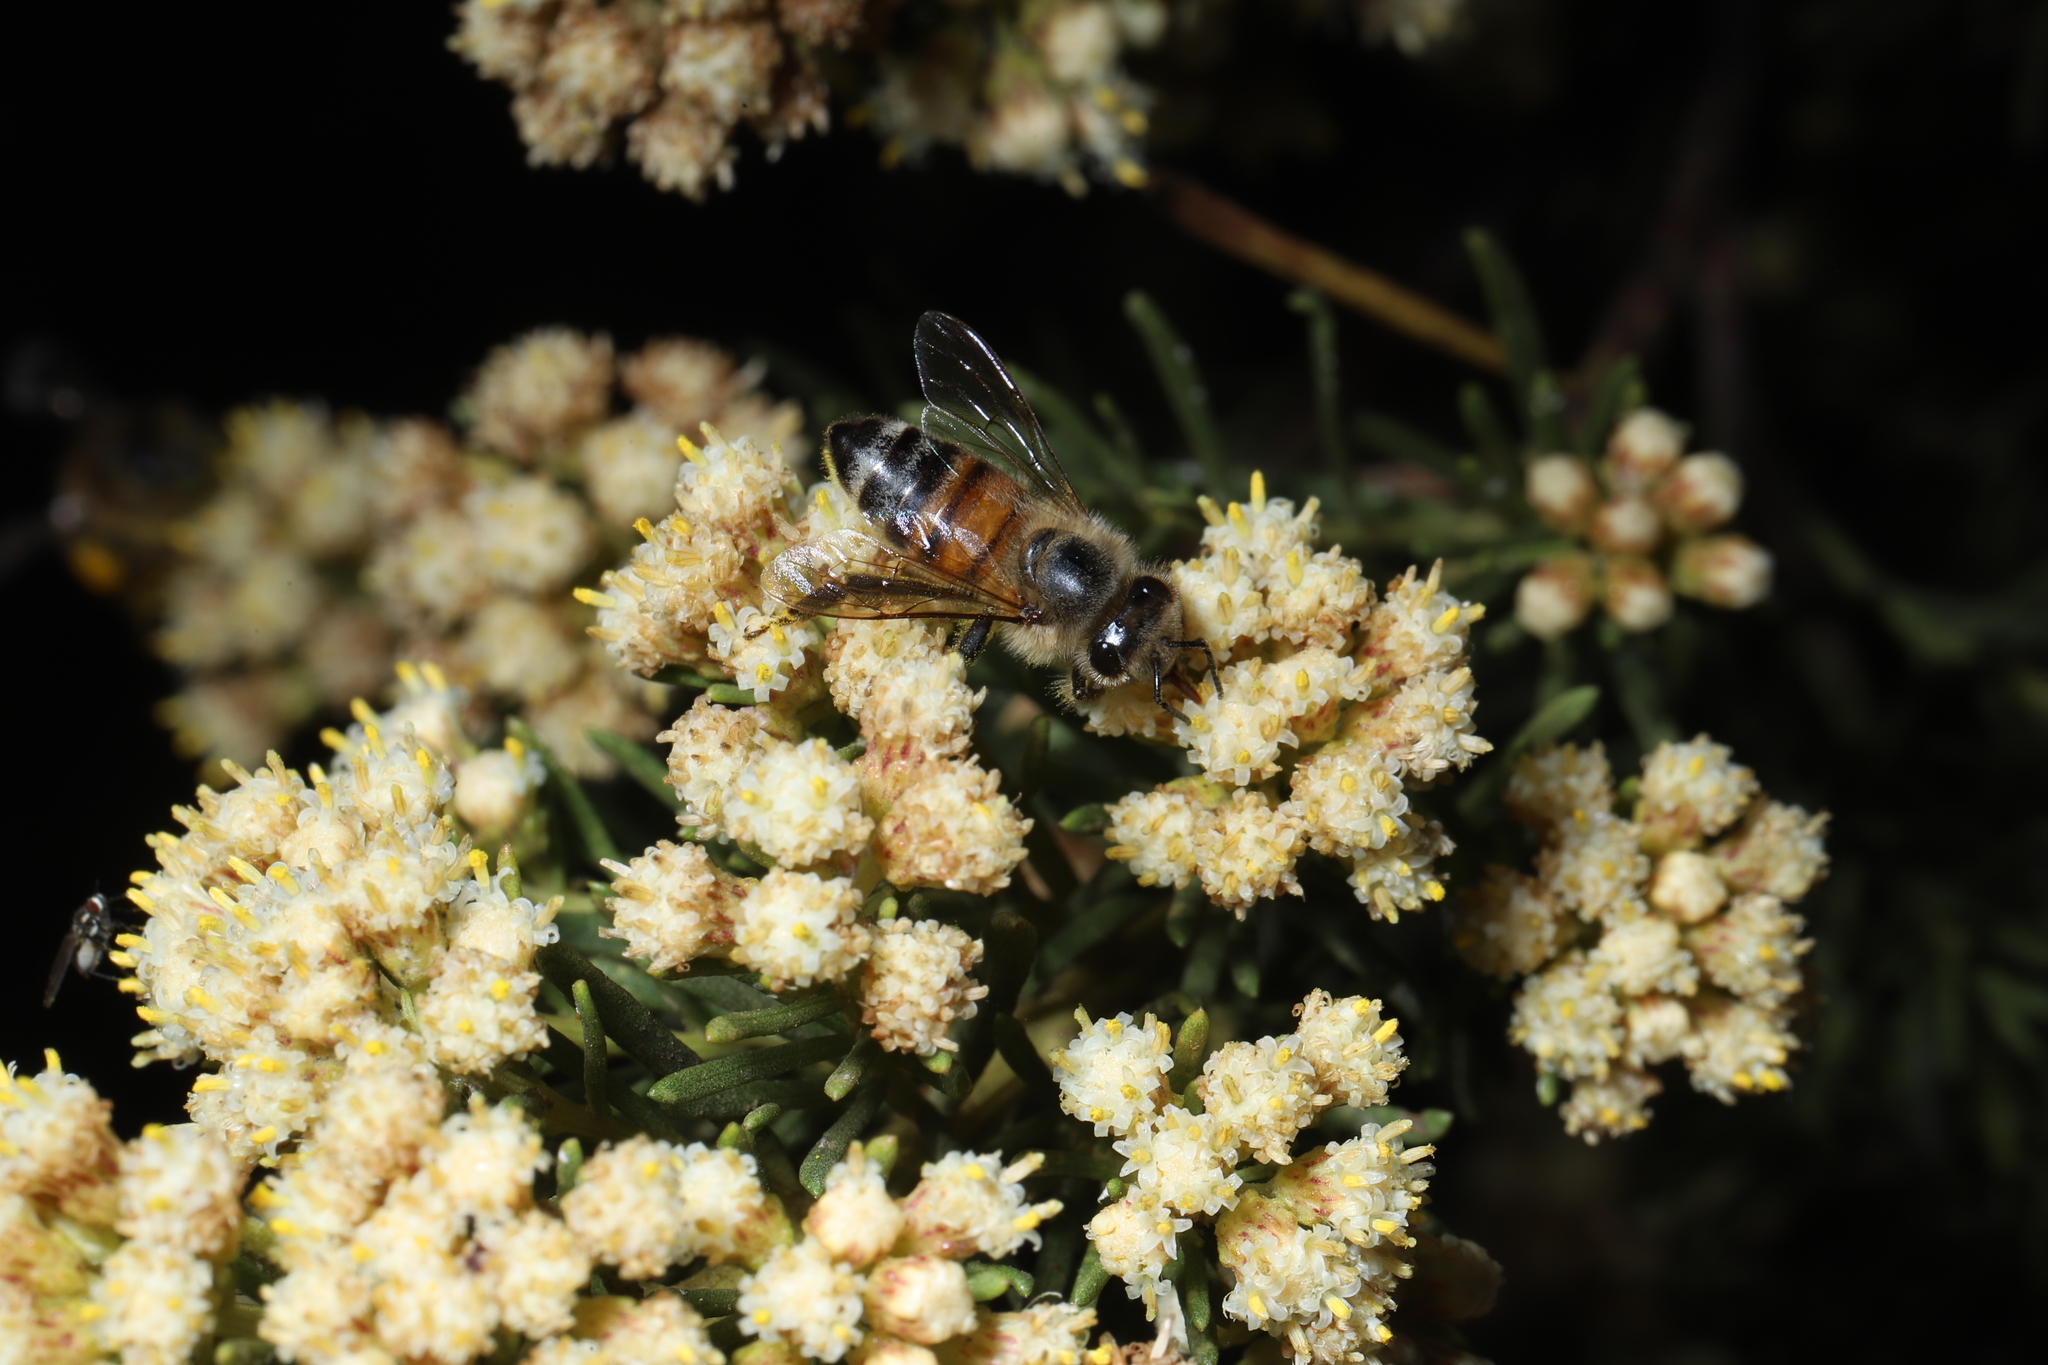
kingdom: Animalia
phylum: Arthropoda
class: Insecta
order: Hymenoptera
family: Apidae
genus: Apis
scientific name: Apis mellifera
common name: Honey bee
